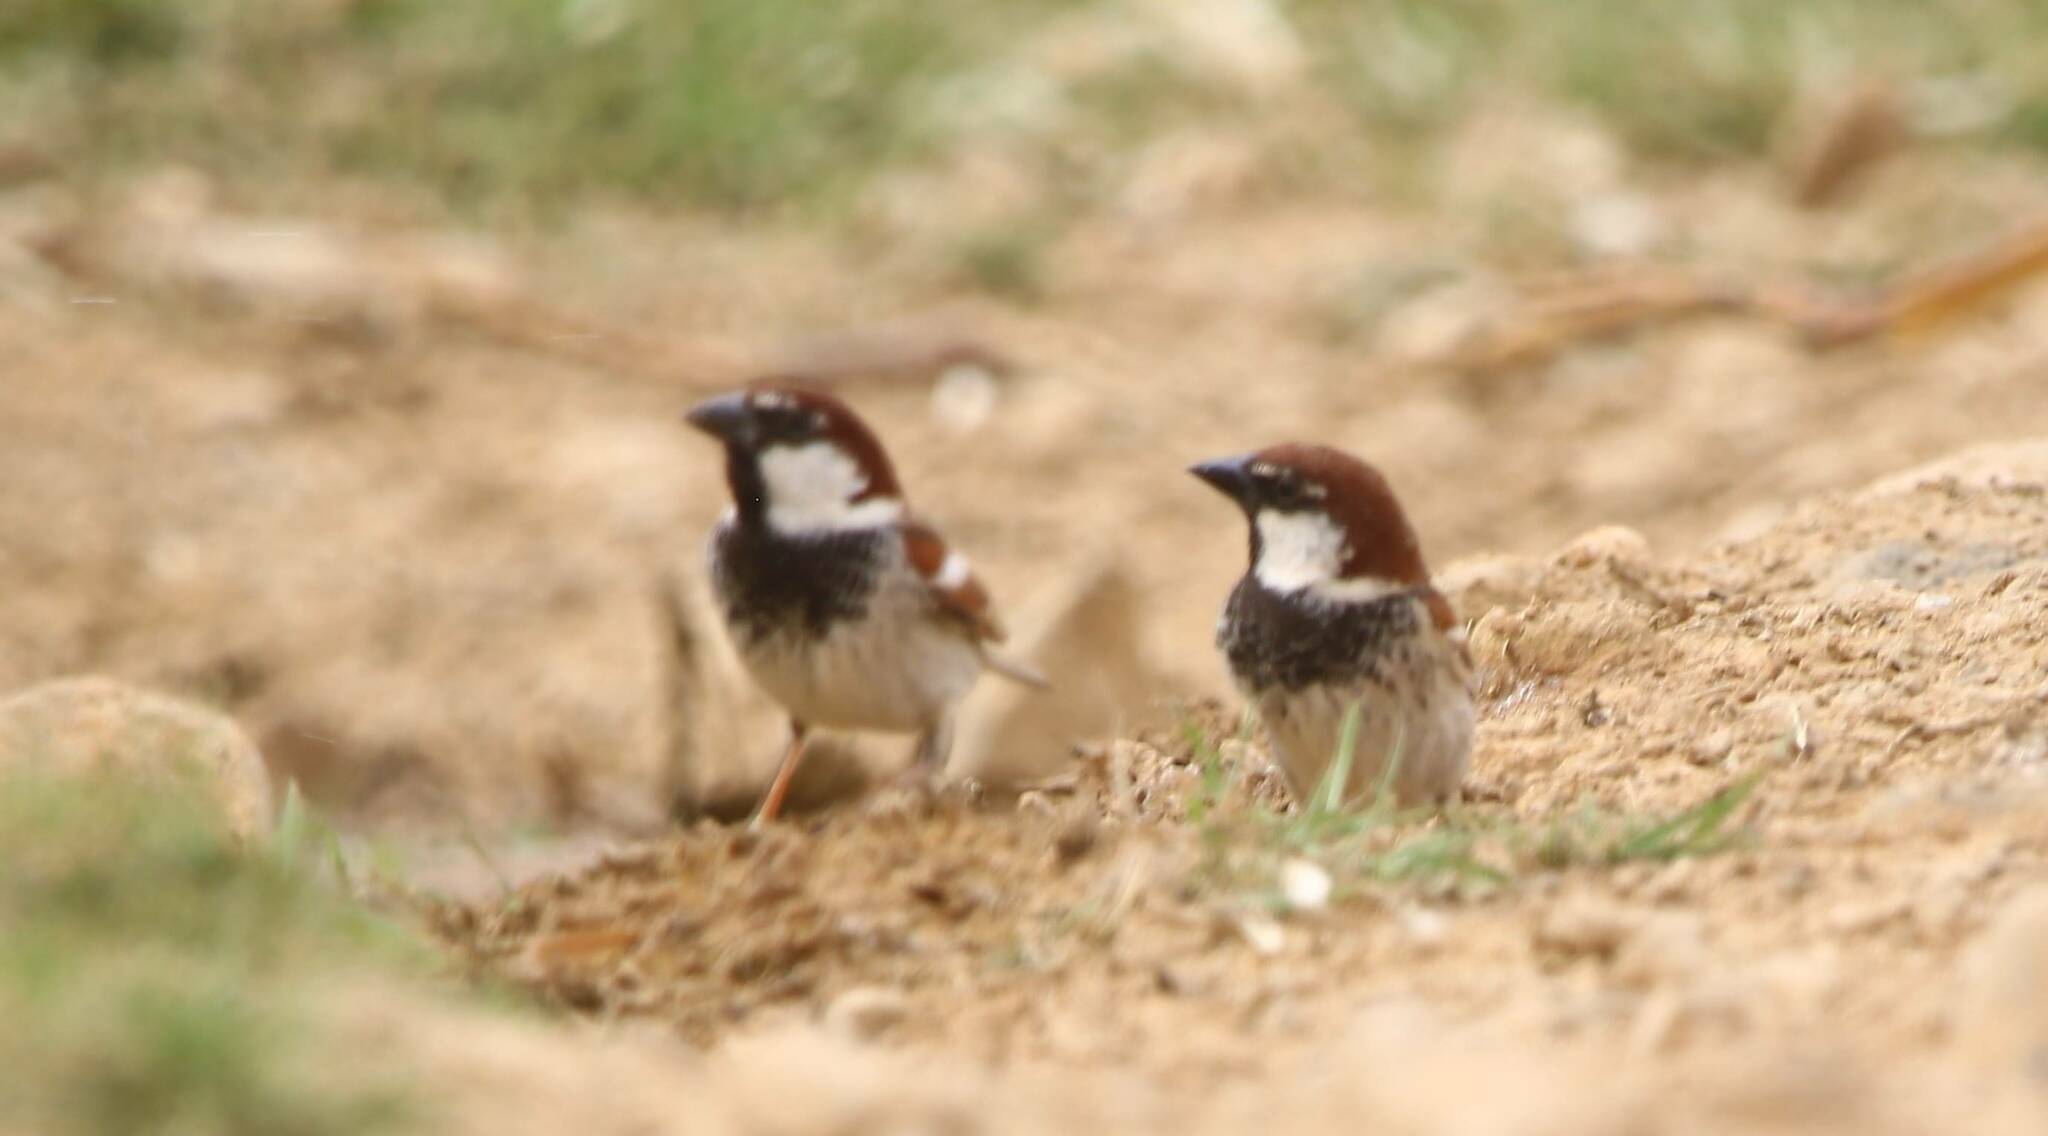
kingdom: Animalia
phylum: Chordata
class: Aves
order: Passeriformes
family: Passeridae
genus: Passer
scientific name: Passer hispaniolensis
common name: Spanish sparrow
